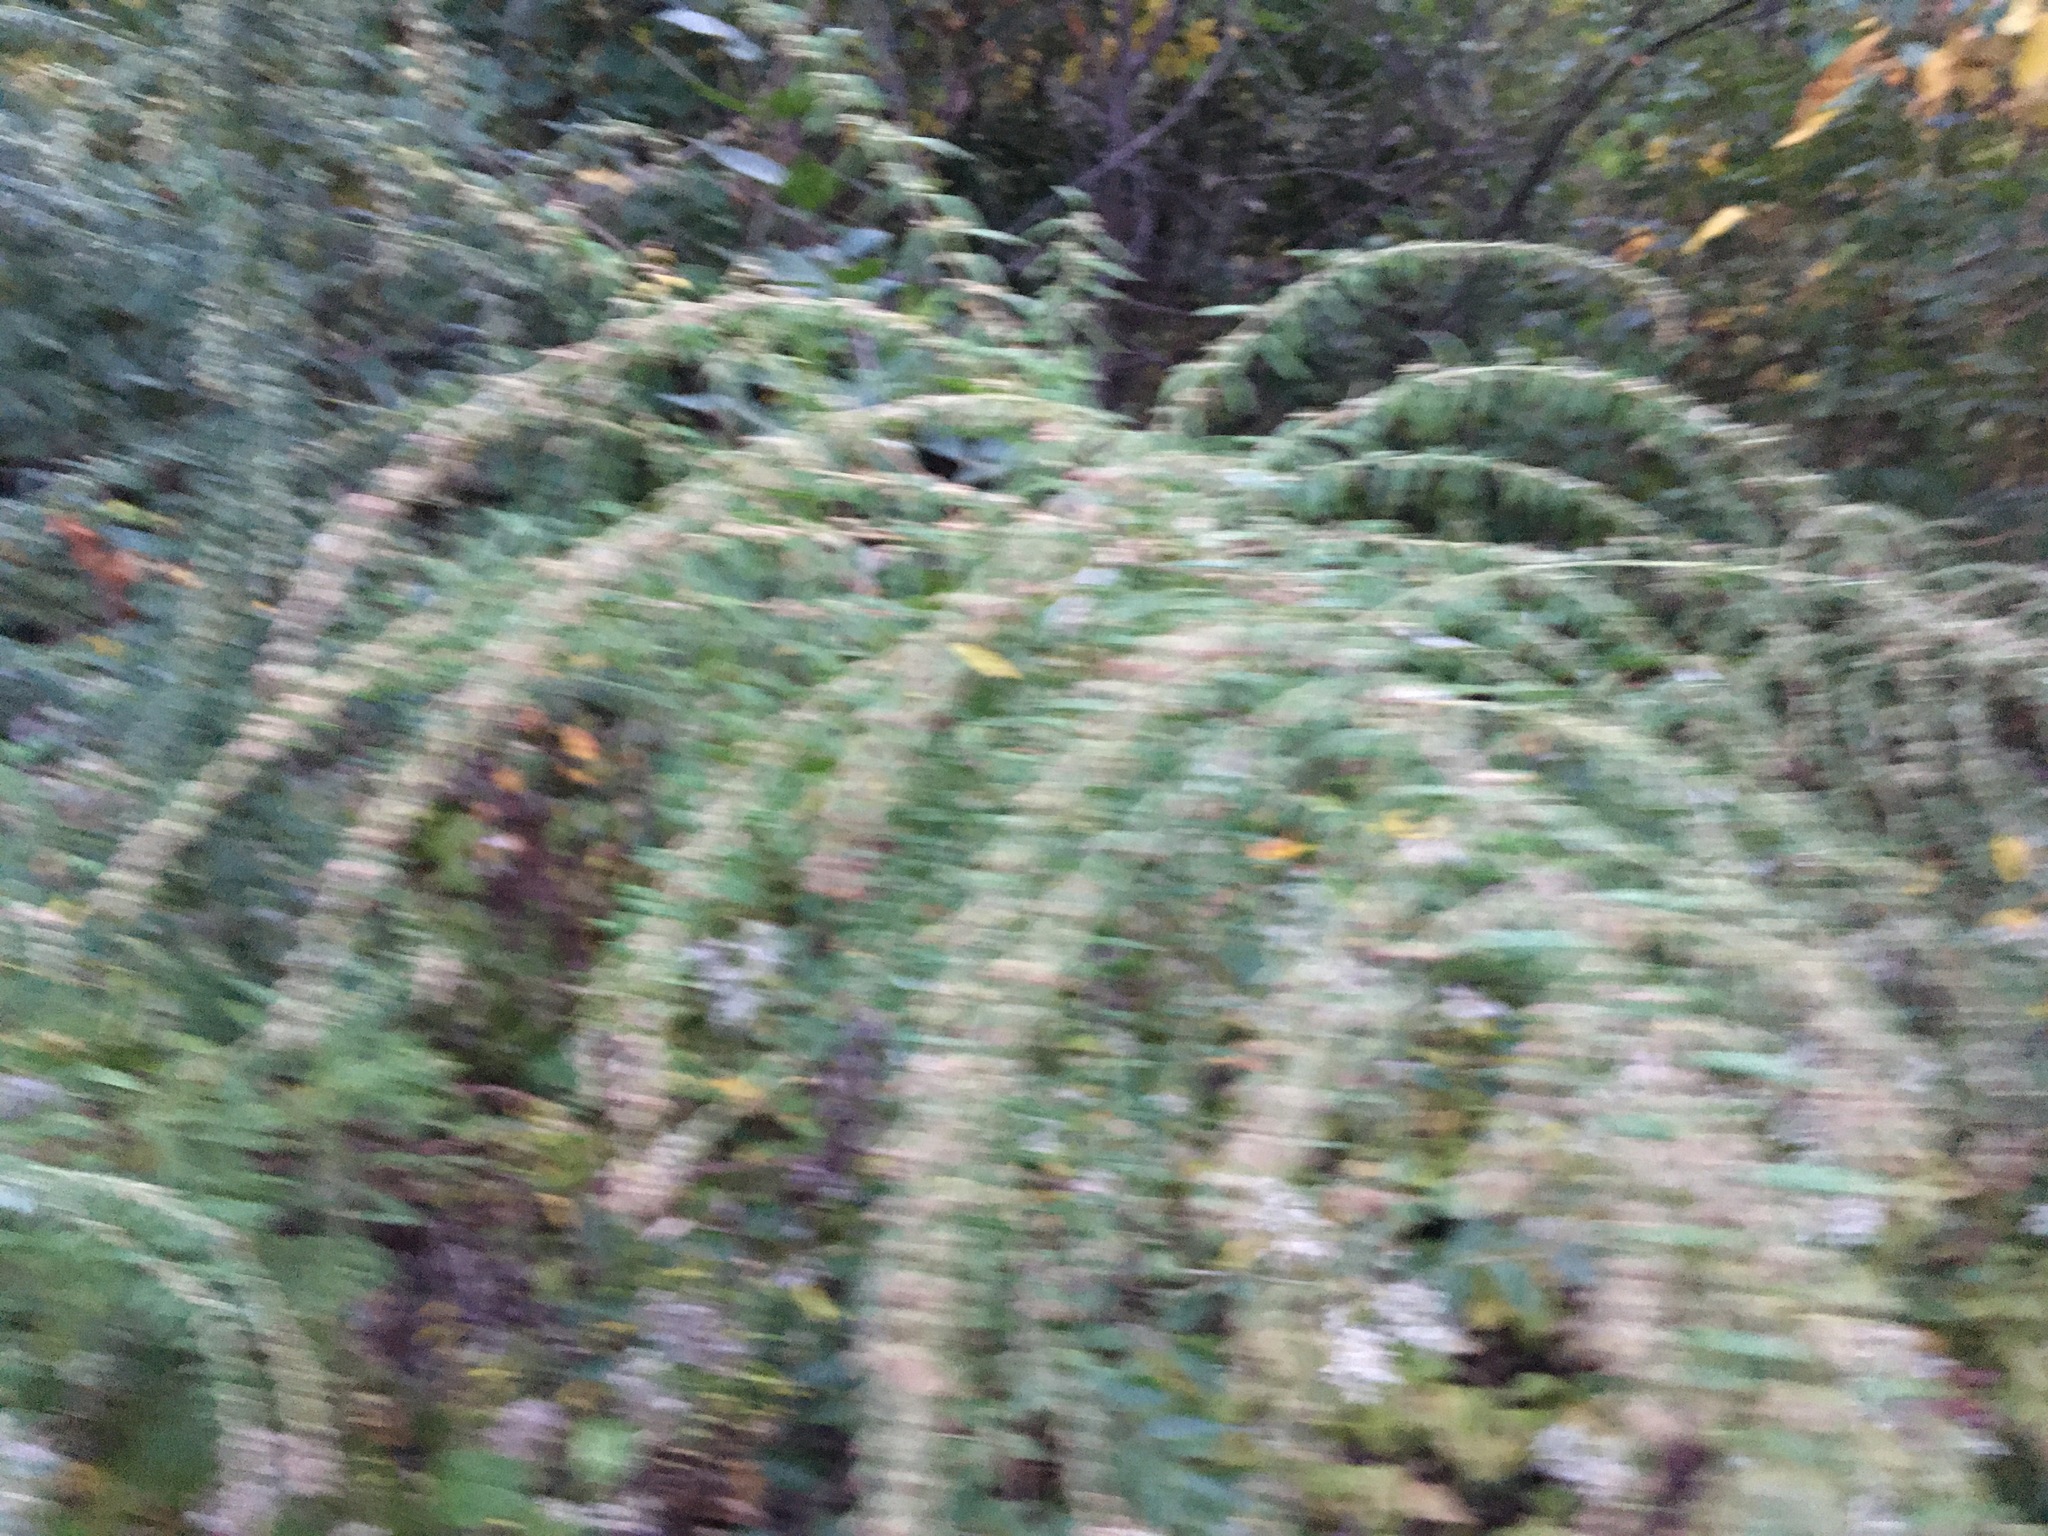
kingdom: Plantae
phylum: Tracheophyta
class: Magnoliopsida
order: Asterales
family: Asteraceae
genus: Artemisia
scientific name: Artemisia vulgaris
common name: Mugwort
